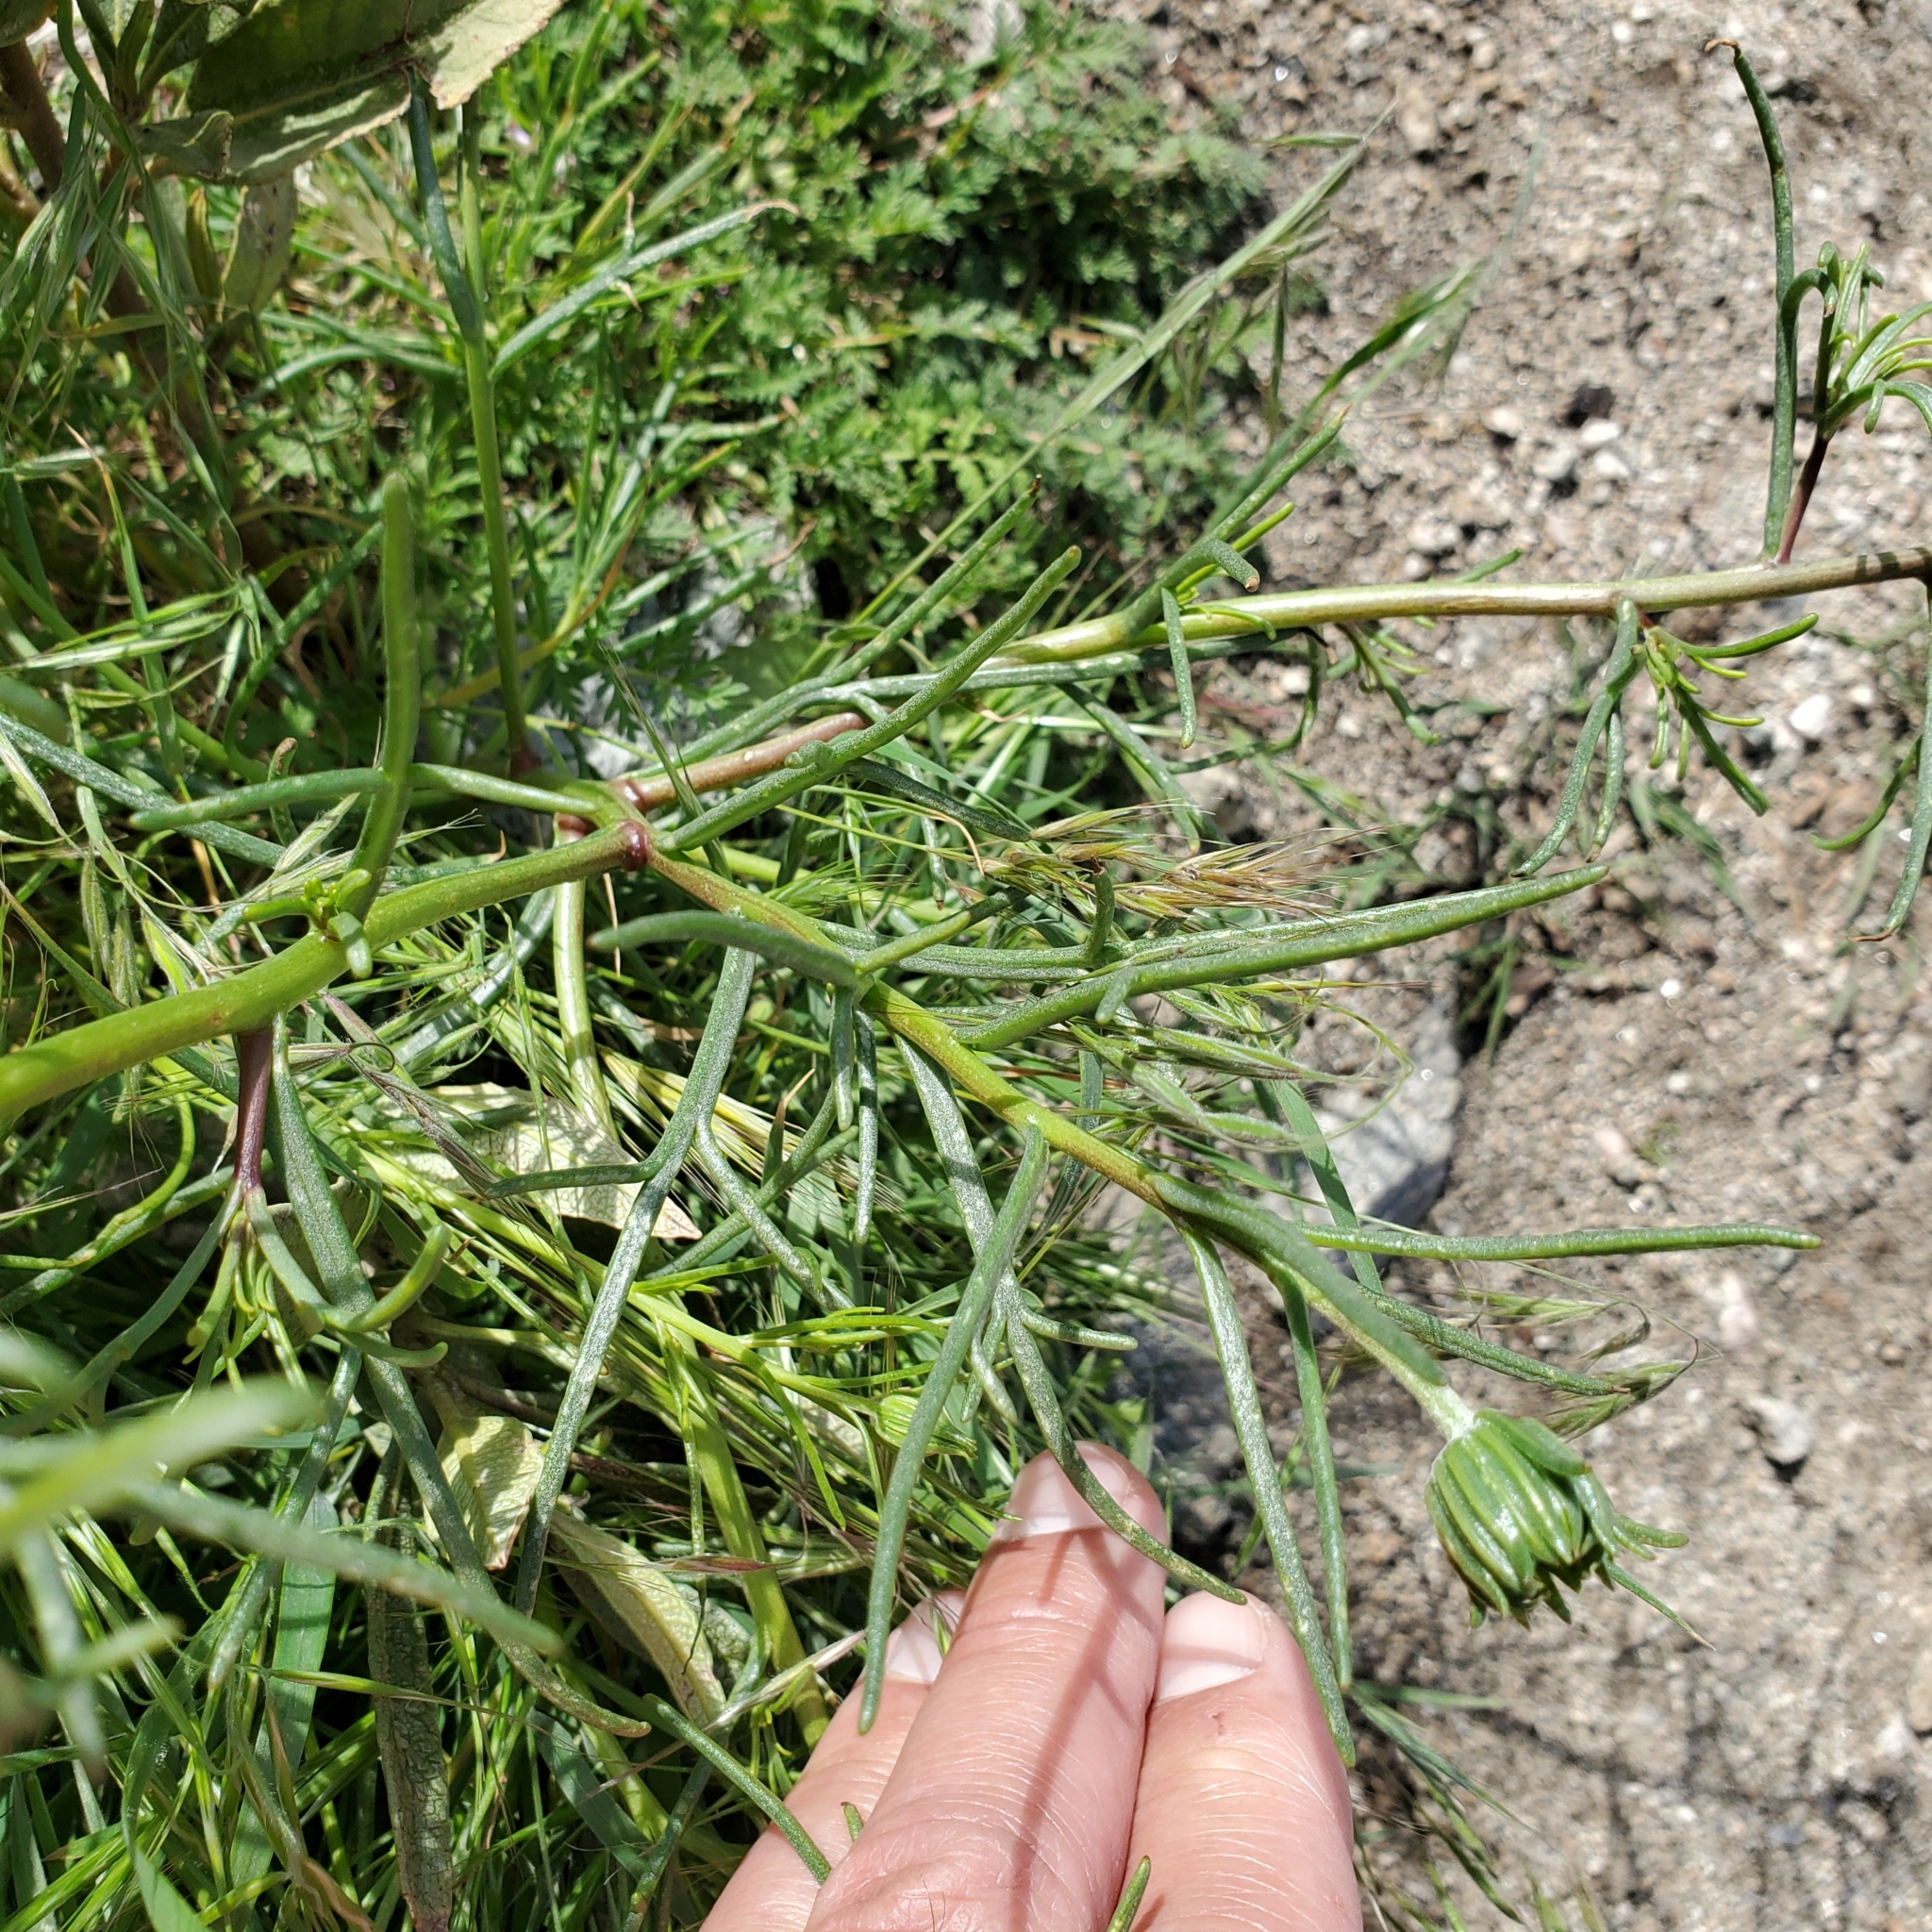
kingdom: Plantae
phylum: Tracheophyta
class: Magnoliopsida
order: Asterales
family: Asteraceae
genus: Chaenactis
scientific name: Chaenactis fremontii
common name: Fremont pincushion
